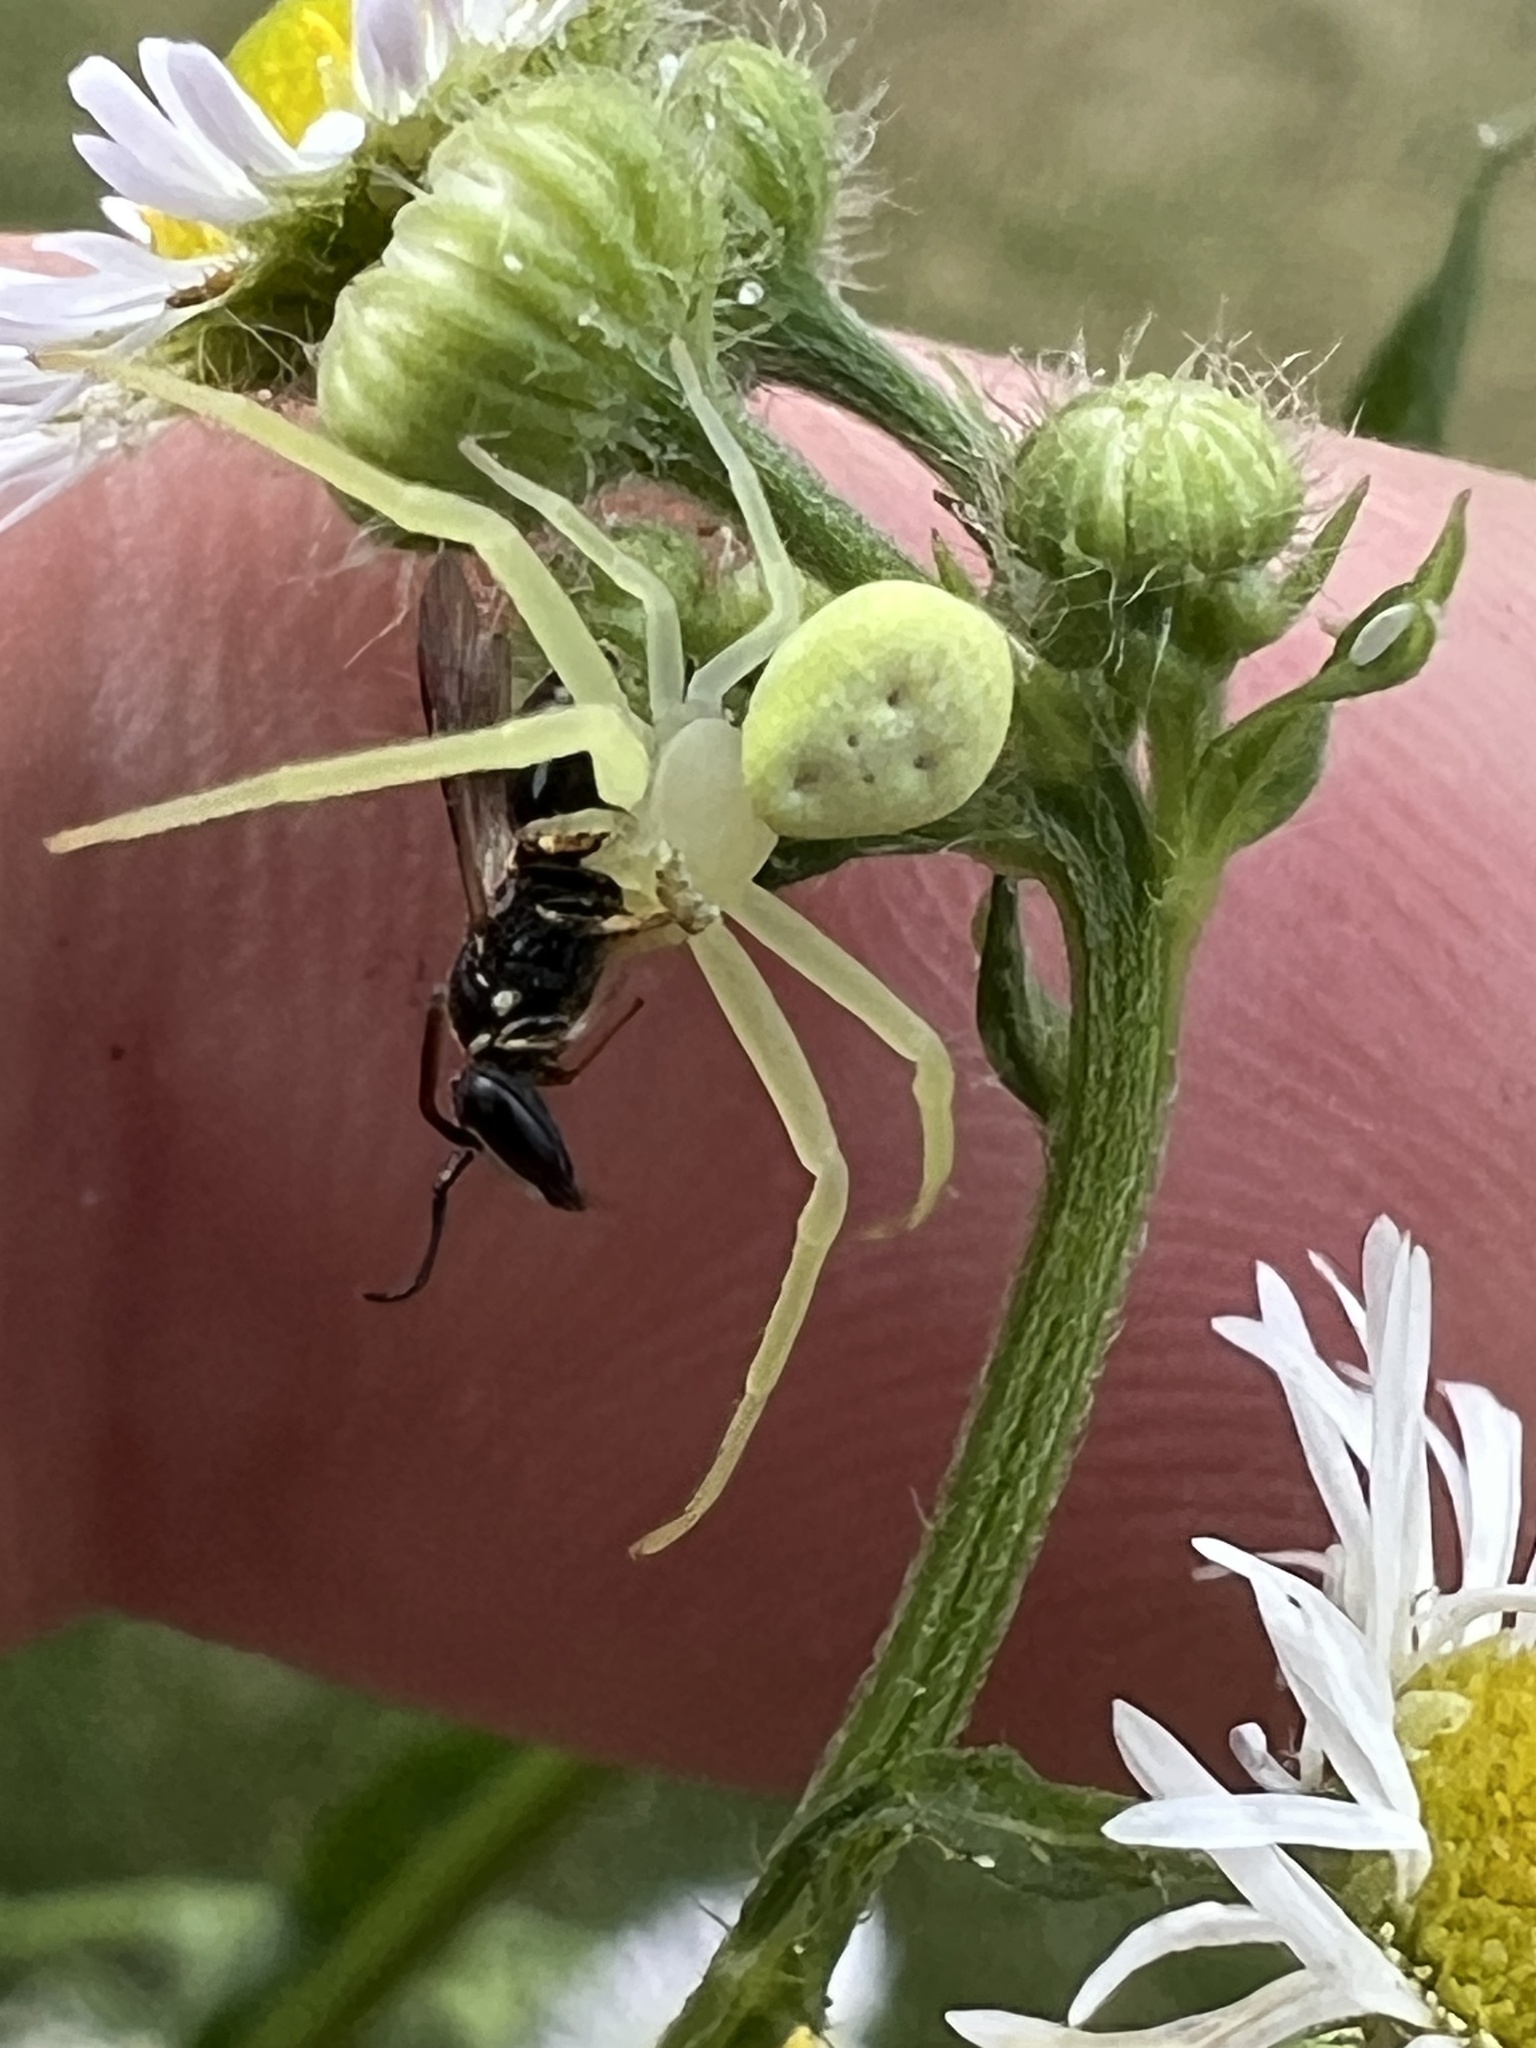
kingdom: Animalia
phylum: Arthropoda
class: Arachnida
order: Araneae
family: Thomisidae
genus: Misumessus
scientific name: Misumessus oblongus
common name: American green crab spider
